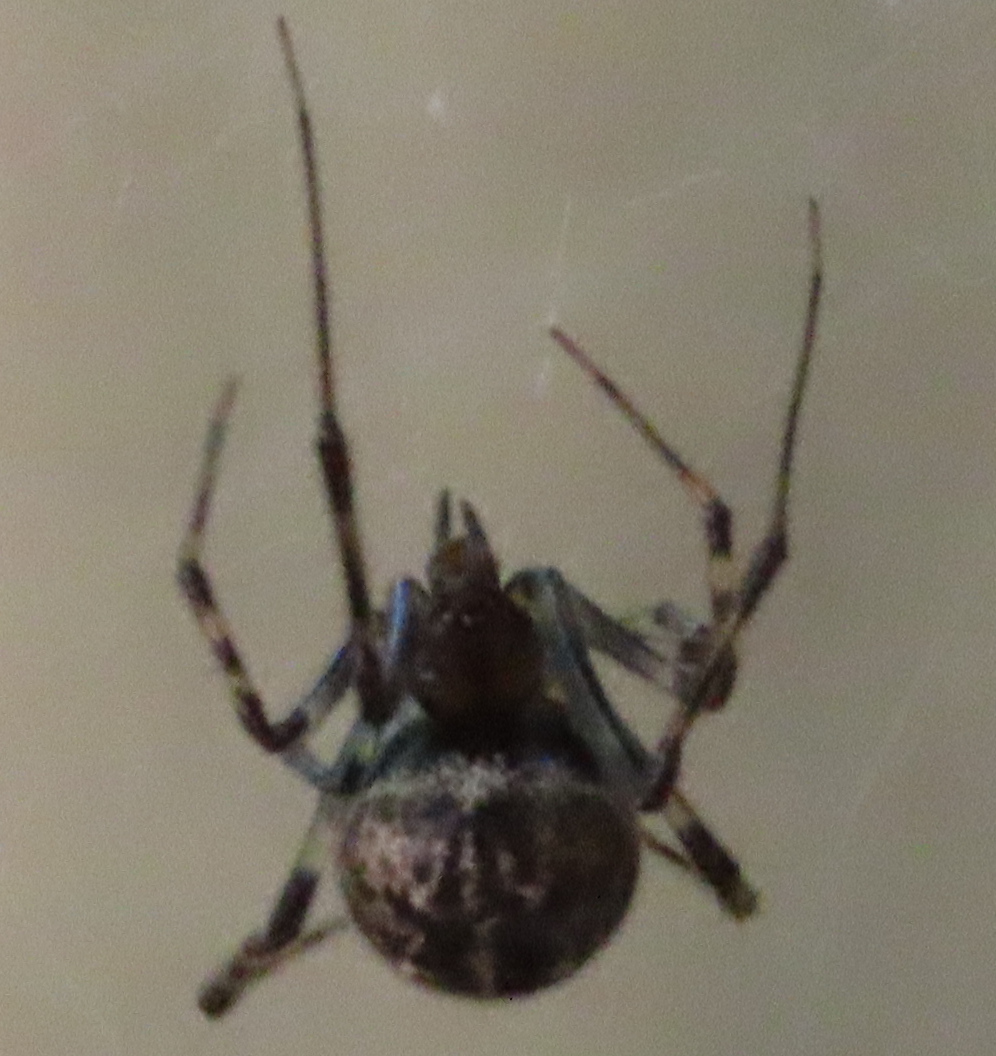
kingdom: Animalia
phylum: Arthropoda
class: Arachnida
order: Araneae
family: Theridiidae
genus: Steatoda
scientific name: Steatoda triangulosa
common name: Triangulate bud spider
